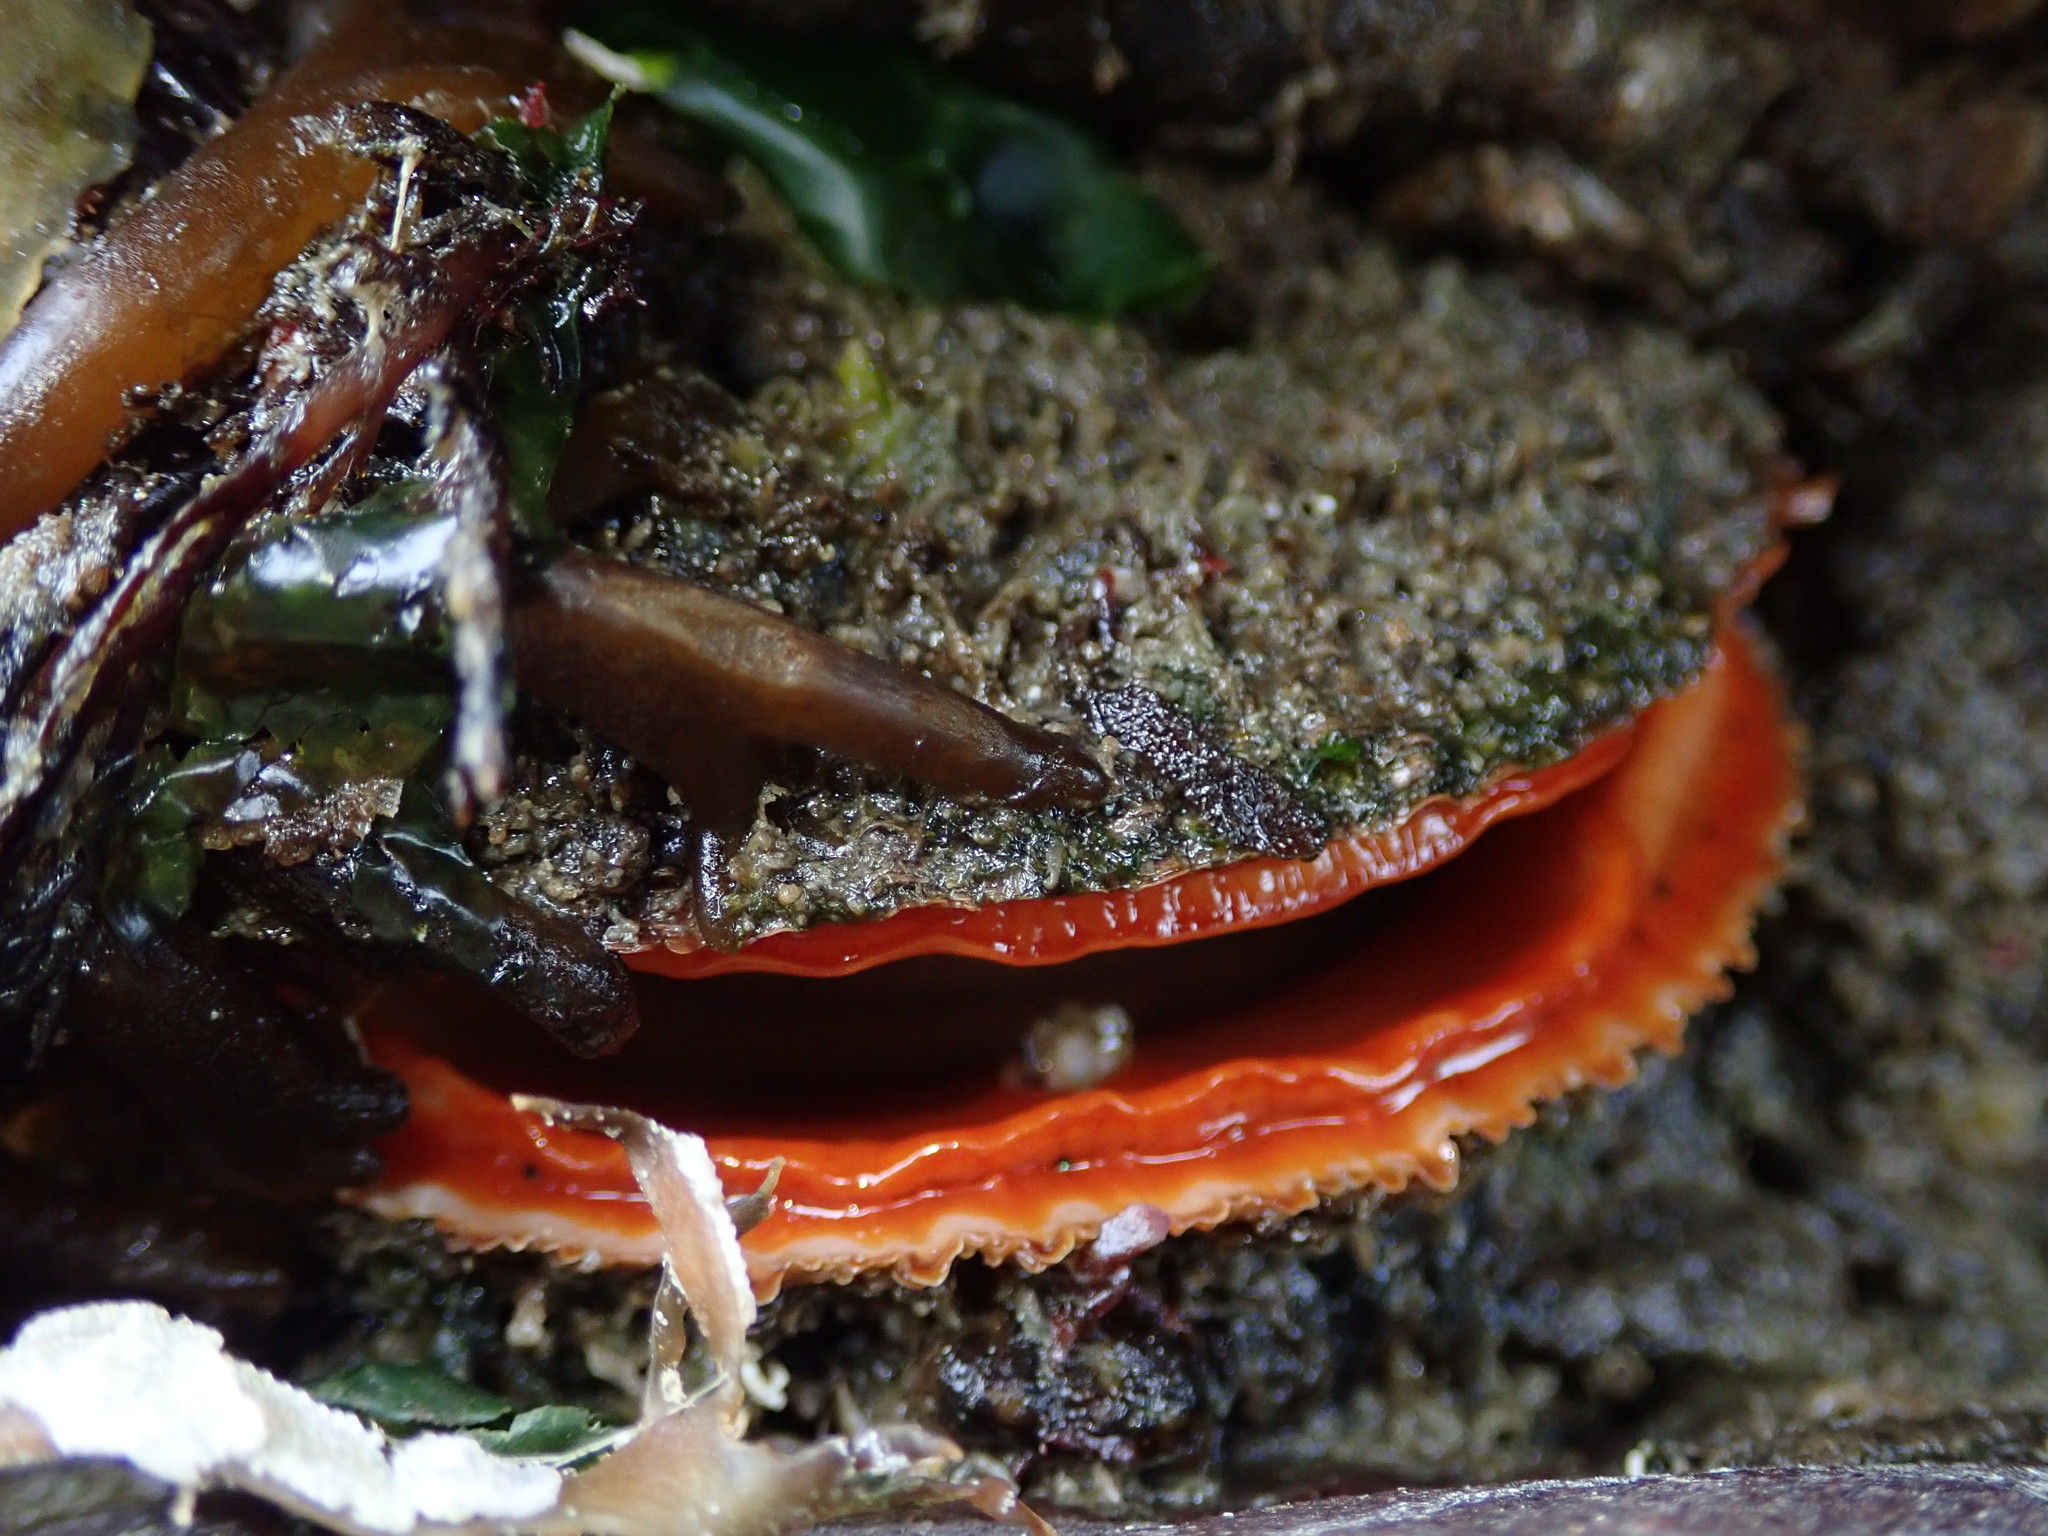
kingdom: Animalia
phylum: Mollusca
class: Bivalvia
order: Pectinida
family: Pectinidae
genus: Crassadoma
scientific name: Crassadoma gigantea
